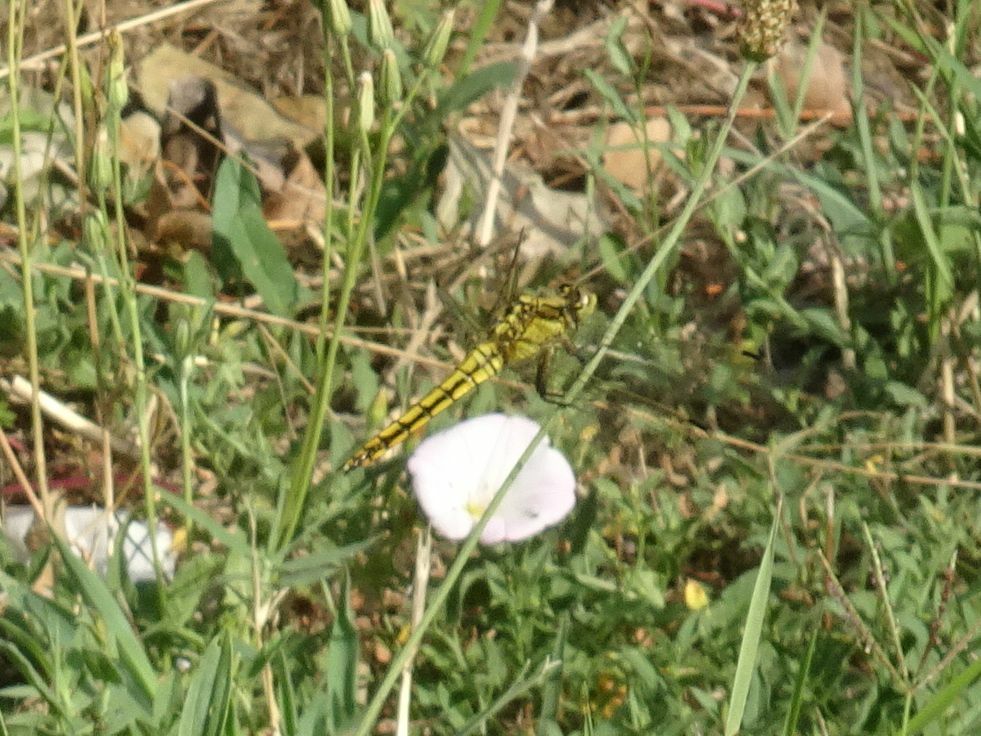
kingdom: Animalia
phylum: Arthropoda
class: Insecta
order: Odonata
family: Libellulidae
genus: Orthetrum
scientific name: Orthetrum cancellatum
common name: Black-tailed skimmer
